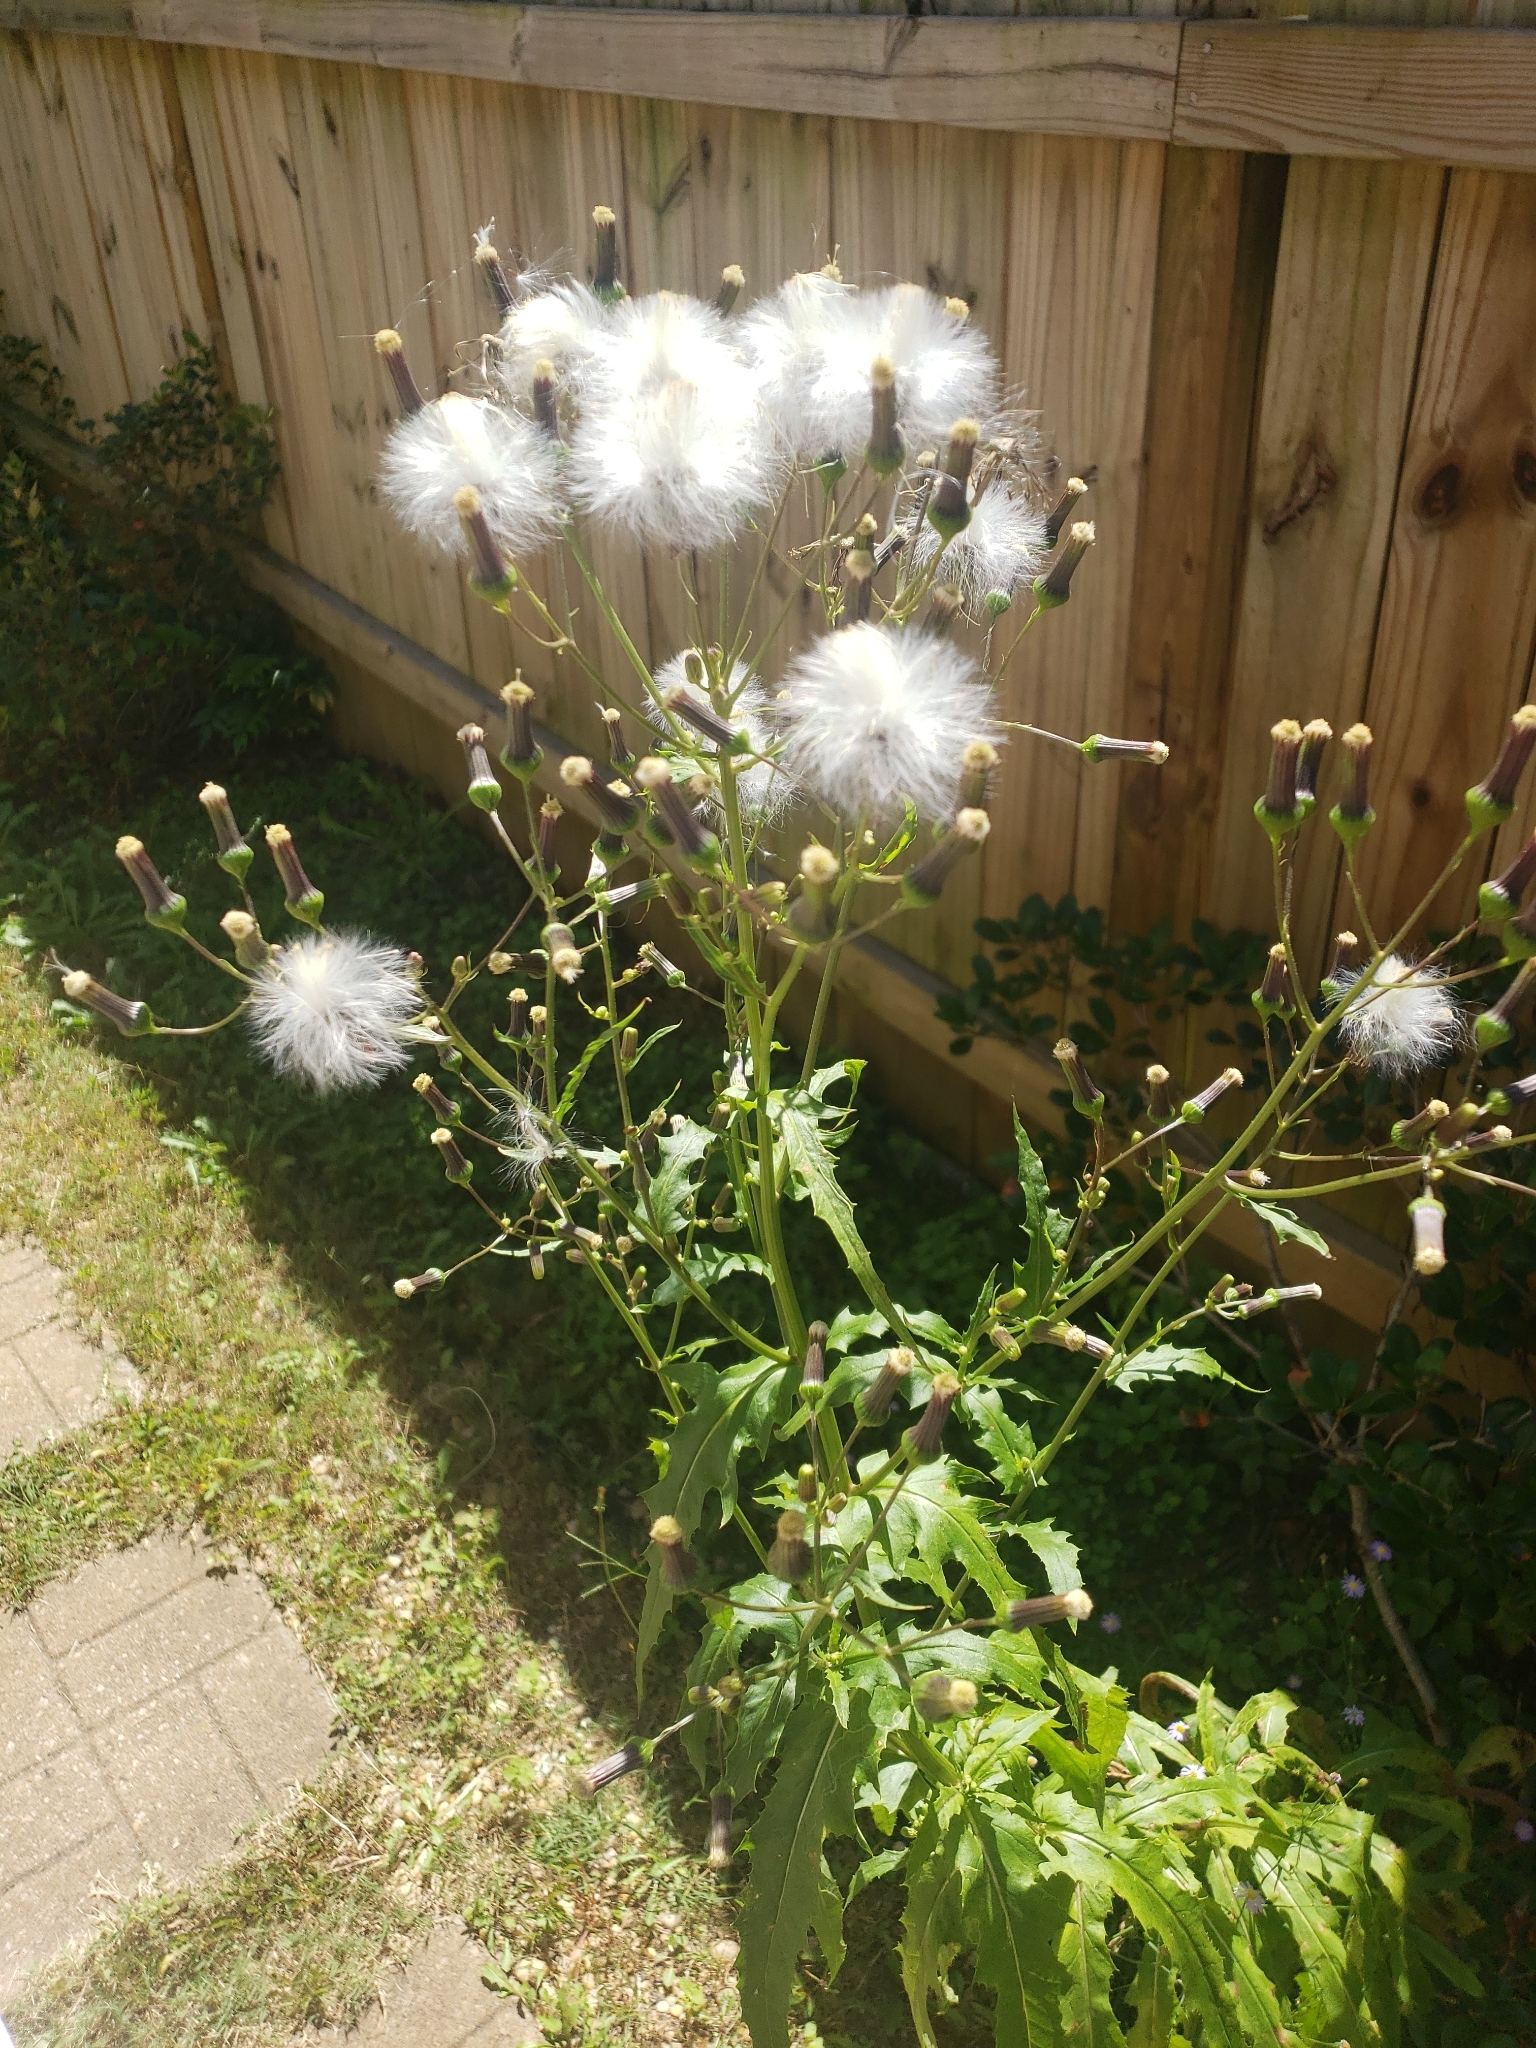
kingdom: Plantae
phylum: Tracheophyta
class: Magnoliopsida
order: Asterales
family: Asteraceae
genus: Erechtites
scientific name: Erechtites hieraciifolius
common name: American burnweed
